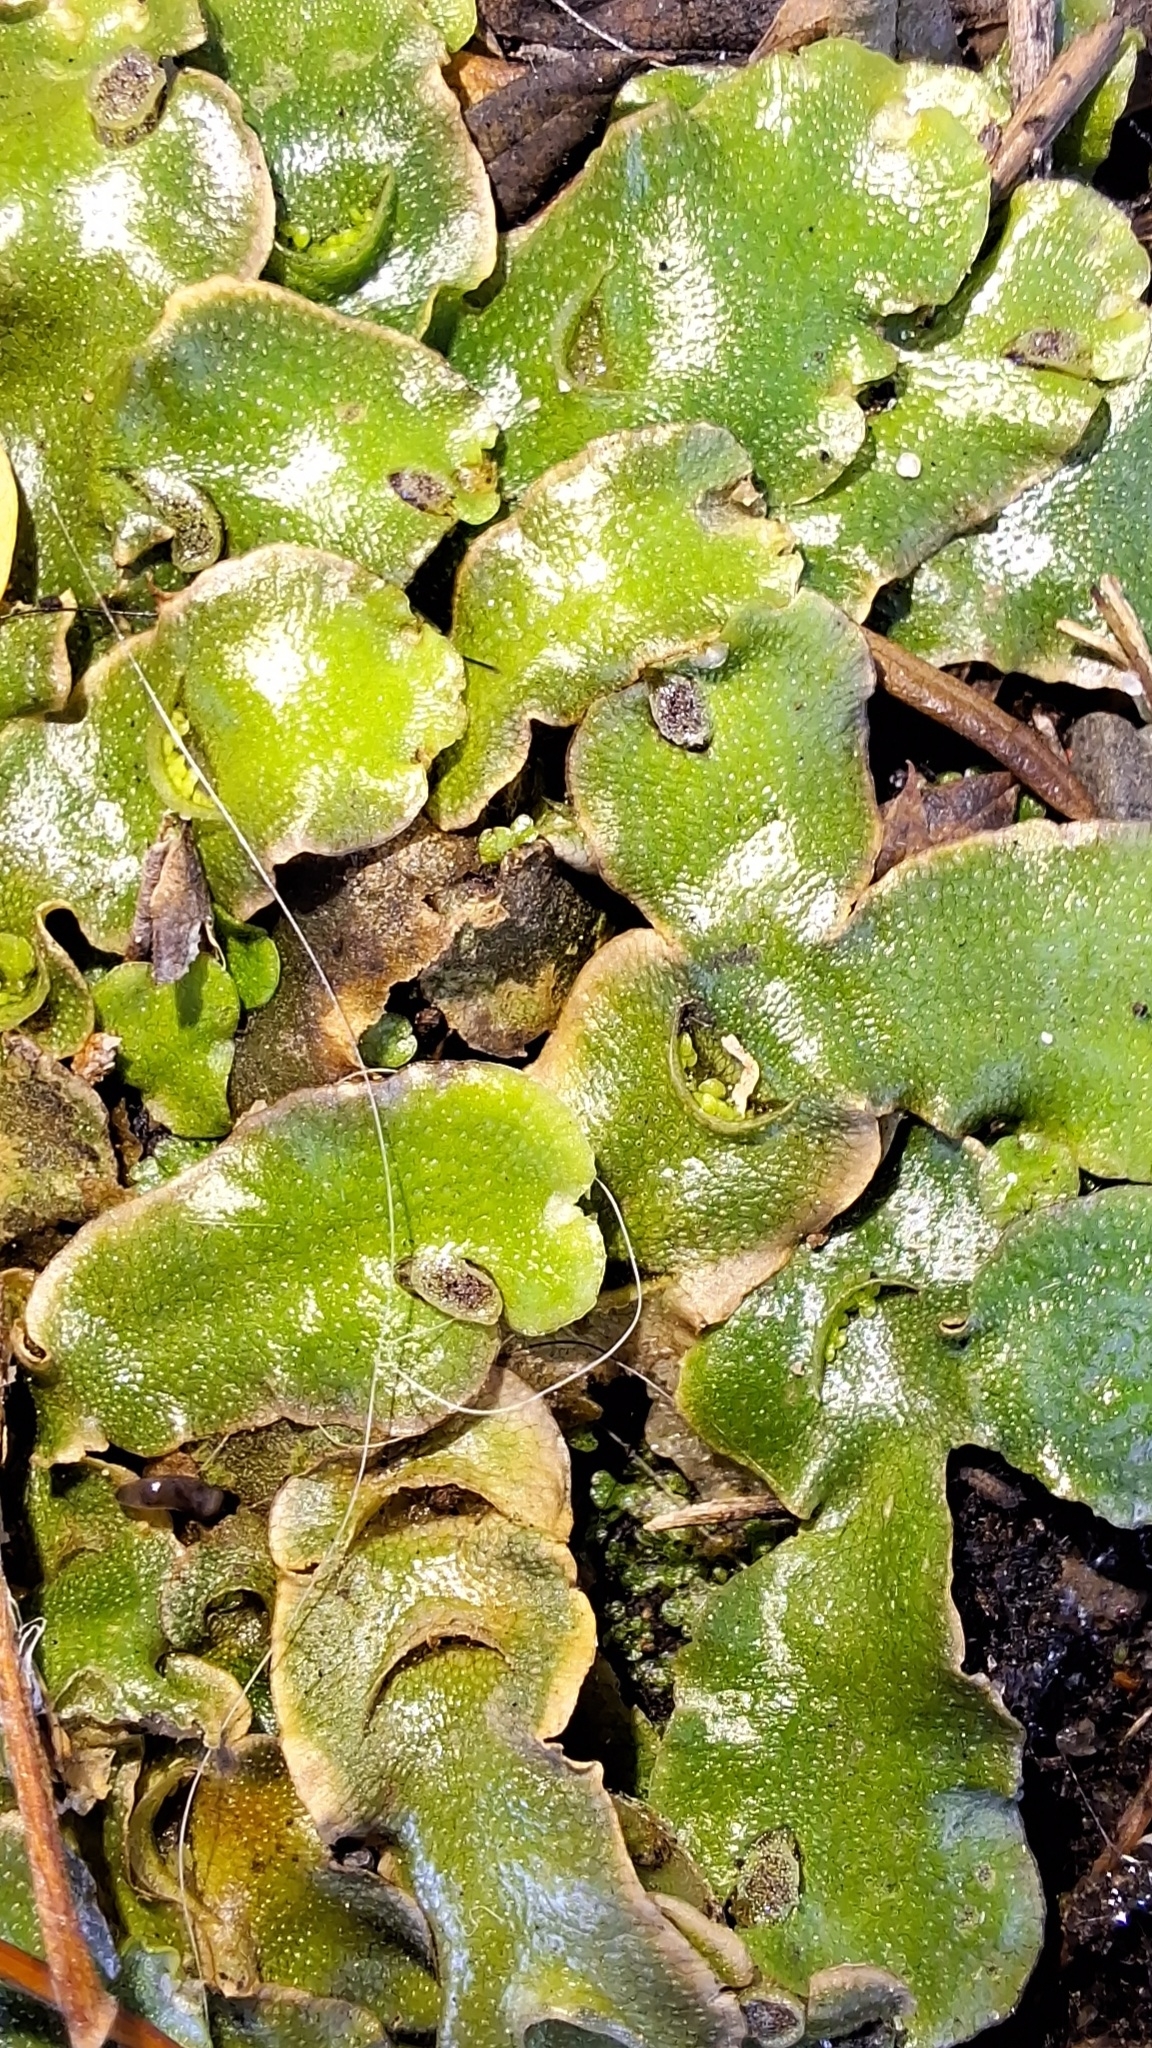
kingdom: Plantae
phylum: Marchantiophyta
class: Marchantiopsida
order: Lunulariales
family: Lunulariaceae
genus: Lunularia
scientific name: Lunularia cruciata
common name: Crescent-cup liverwort
